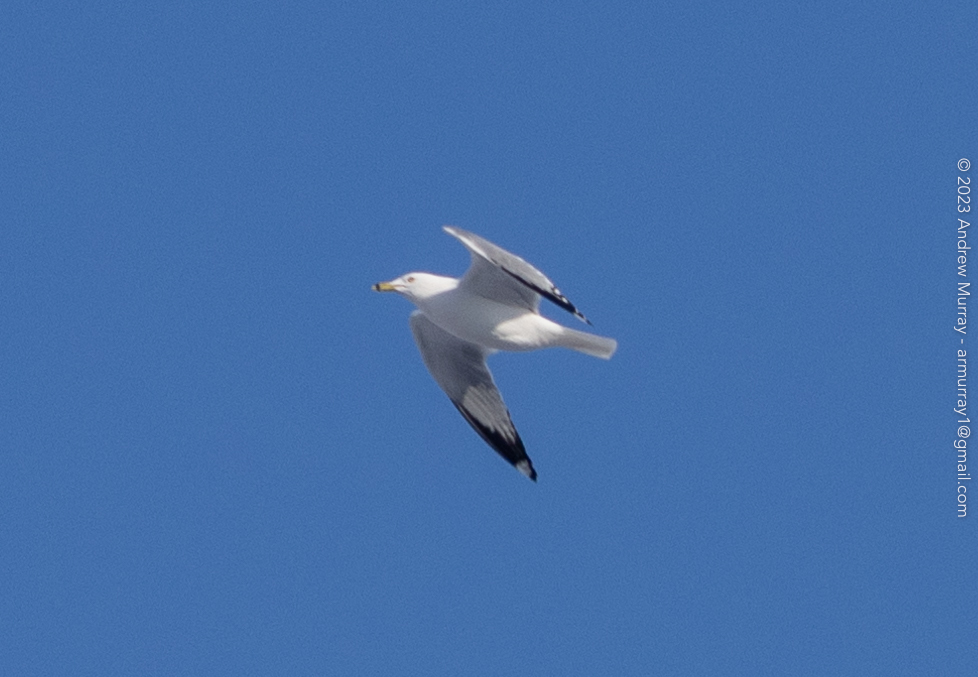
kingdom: Animalia
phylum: Chordata
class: Aves
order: Charadriiformes
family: Laridae
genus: Larus
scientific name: Larus delawarensis
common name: Ring-billed gull
